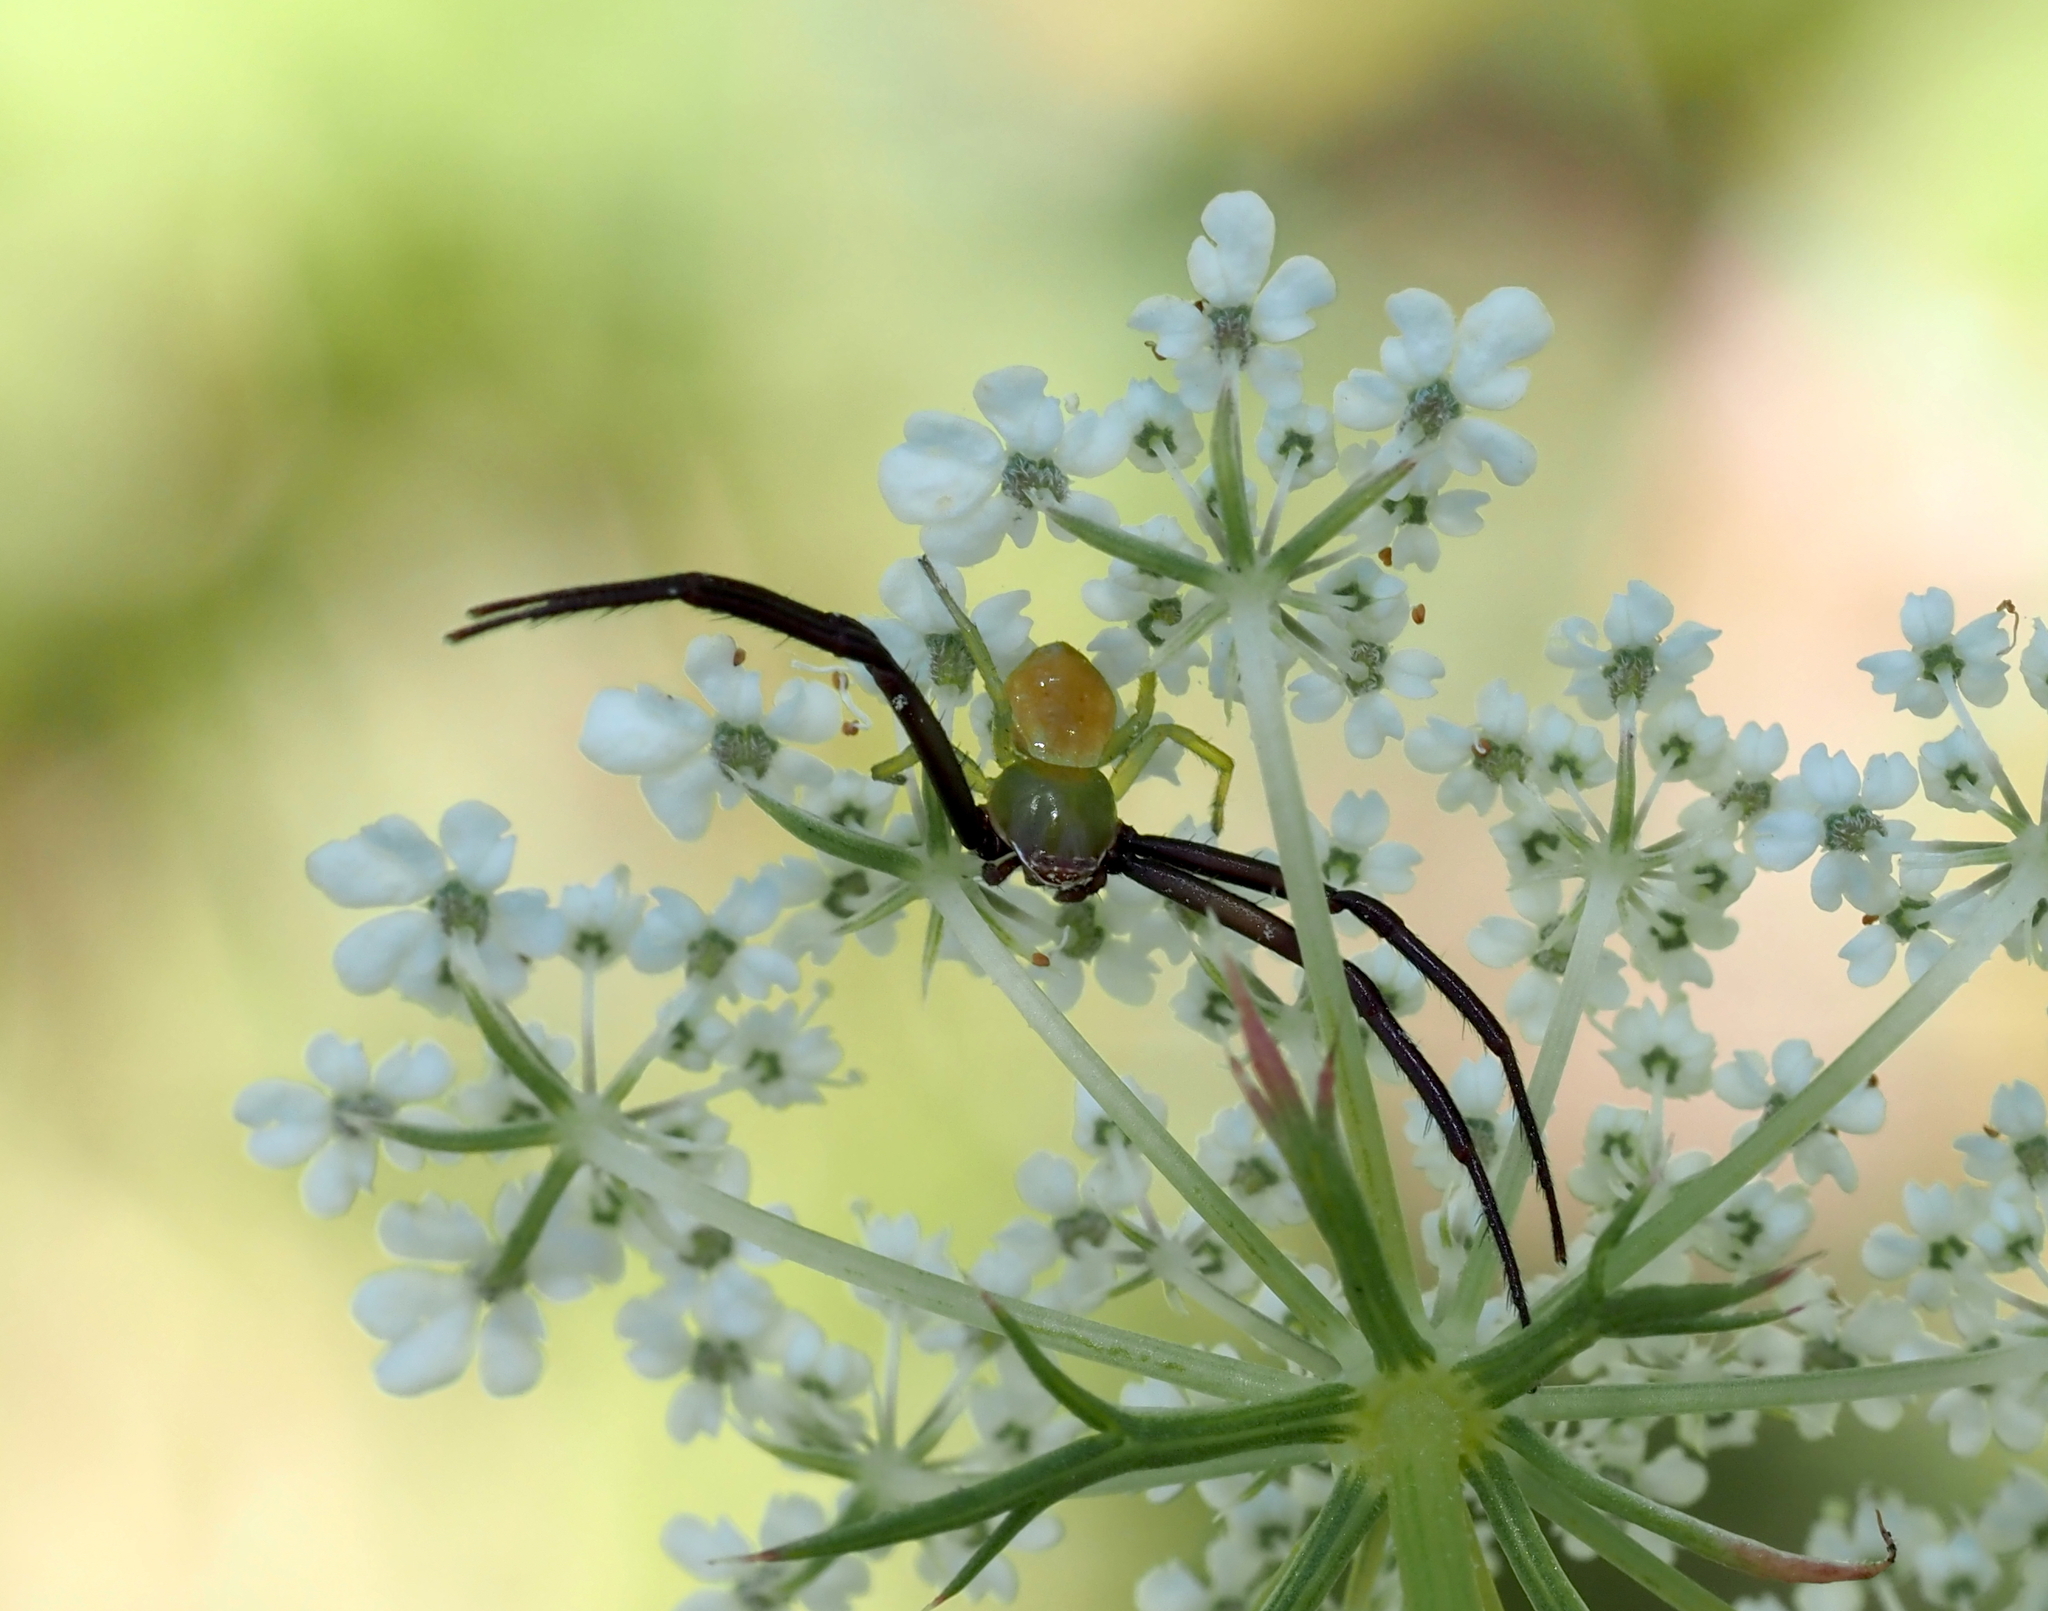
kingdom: Animalia
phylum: Arthropoda
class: Arachnida
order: Araneae
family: Thomisidae
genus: Misumenoides
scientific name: Misumenoides formosipes
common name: White-banded crab spider
